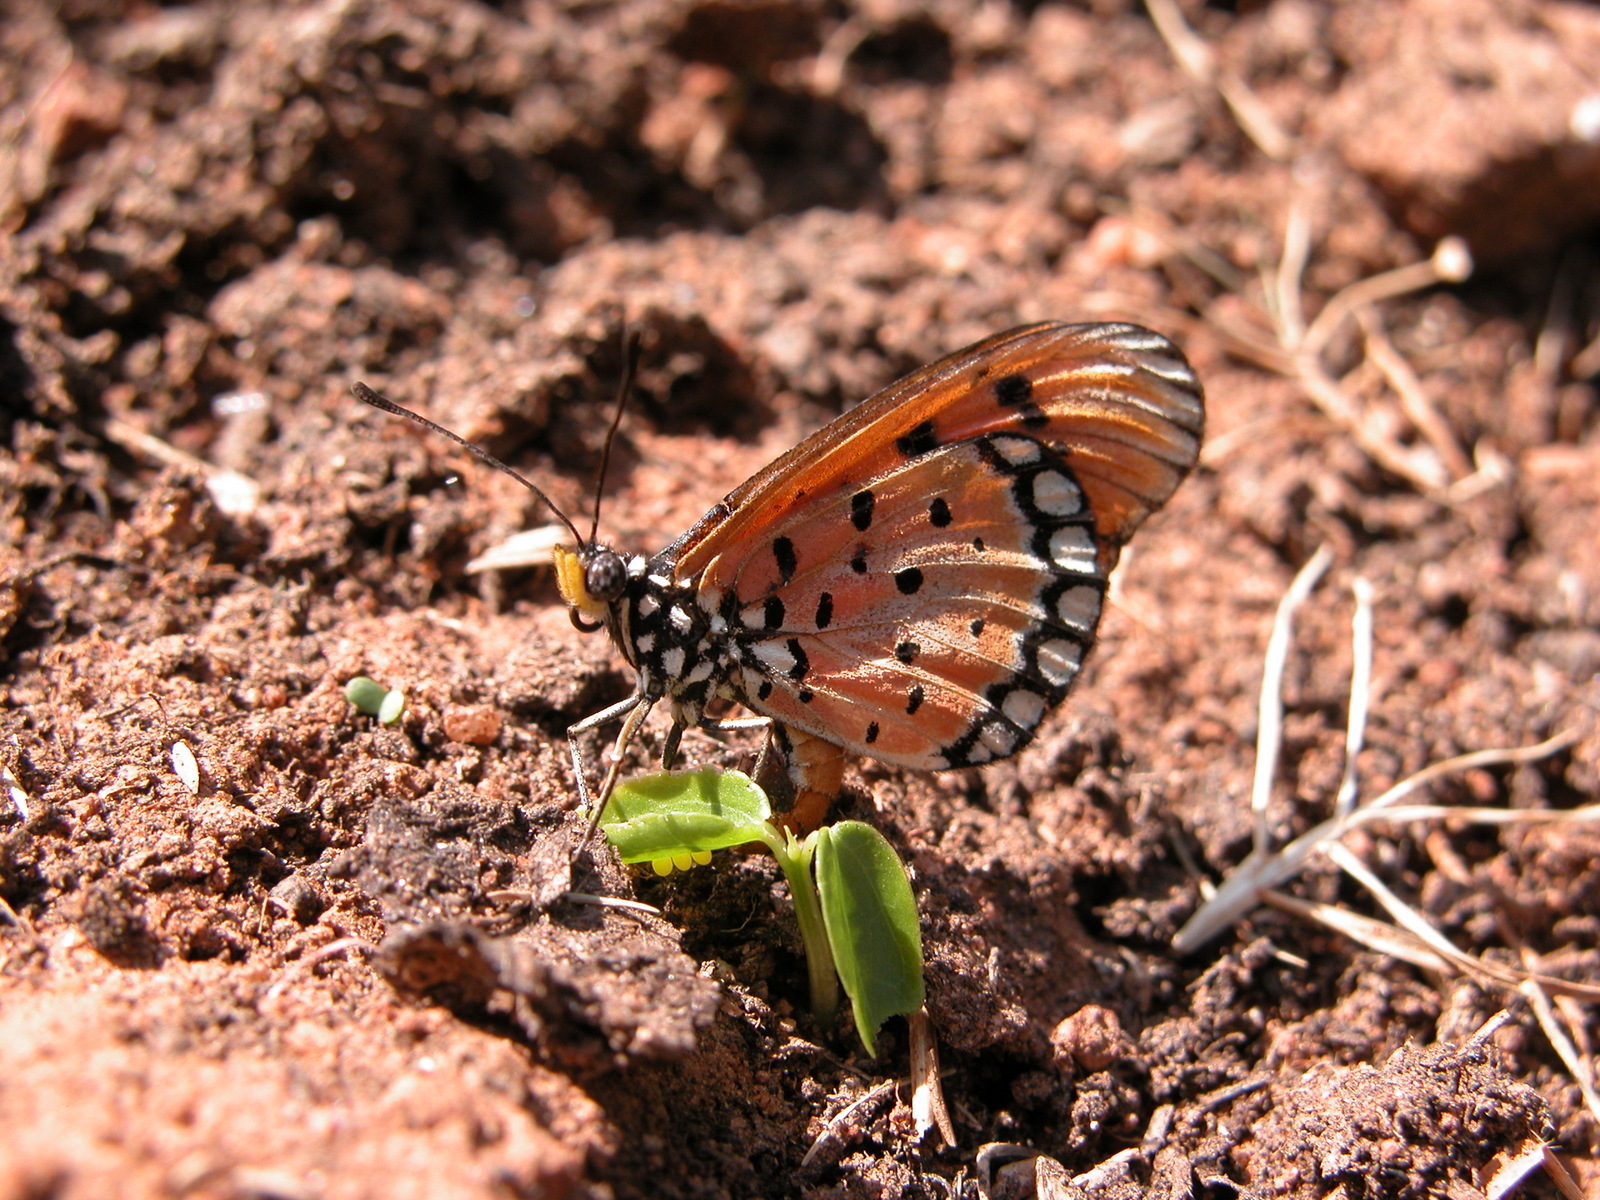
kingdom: Animalia
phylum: Arthropoda
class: Insecta
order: Lepidoptera
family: Nymphalidae
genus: Acraea
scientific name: Acraea terpsicore
